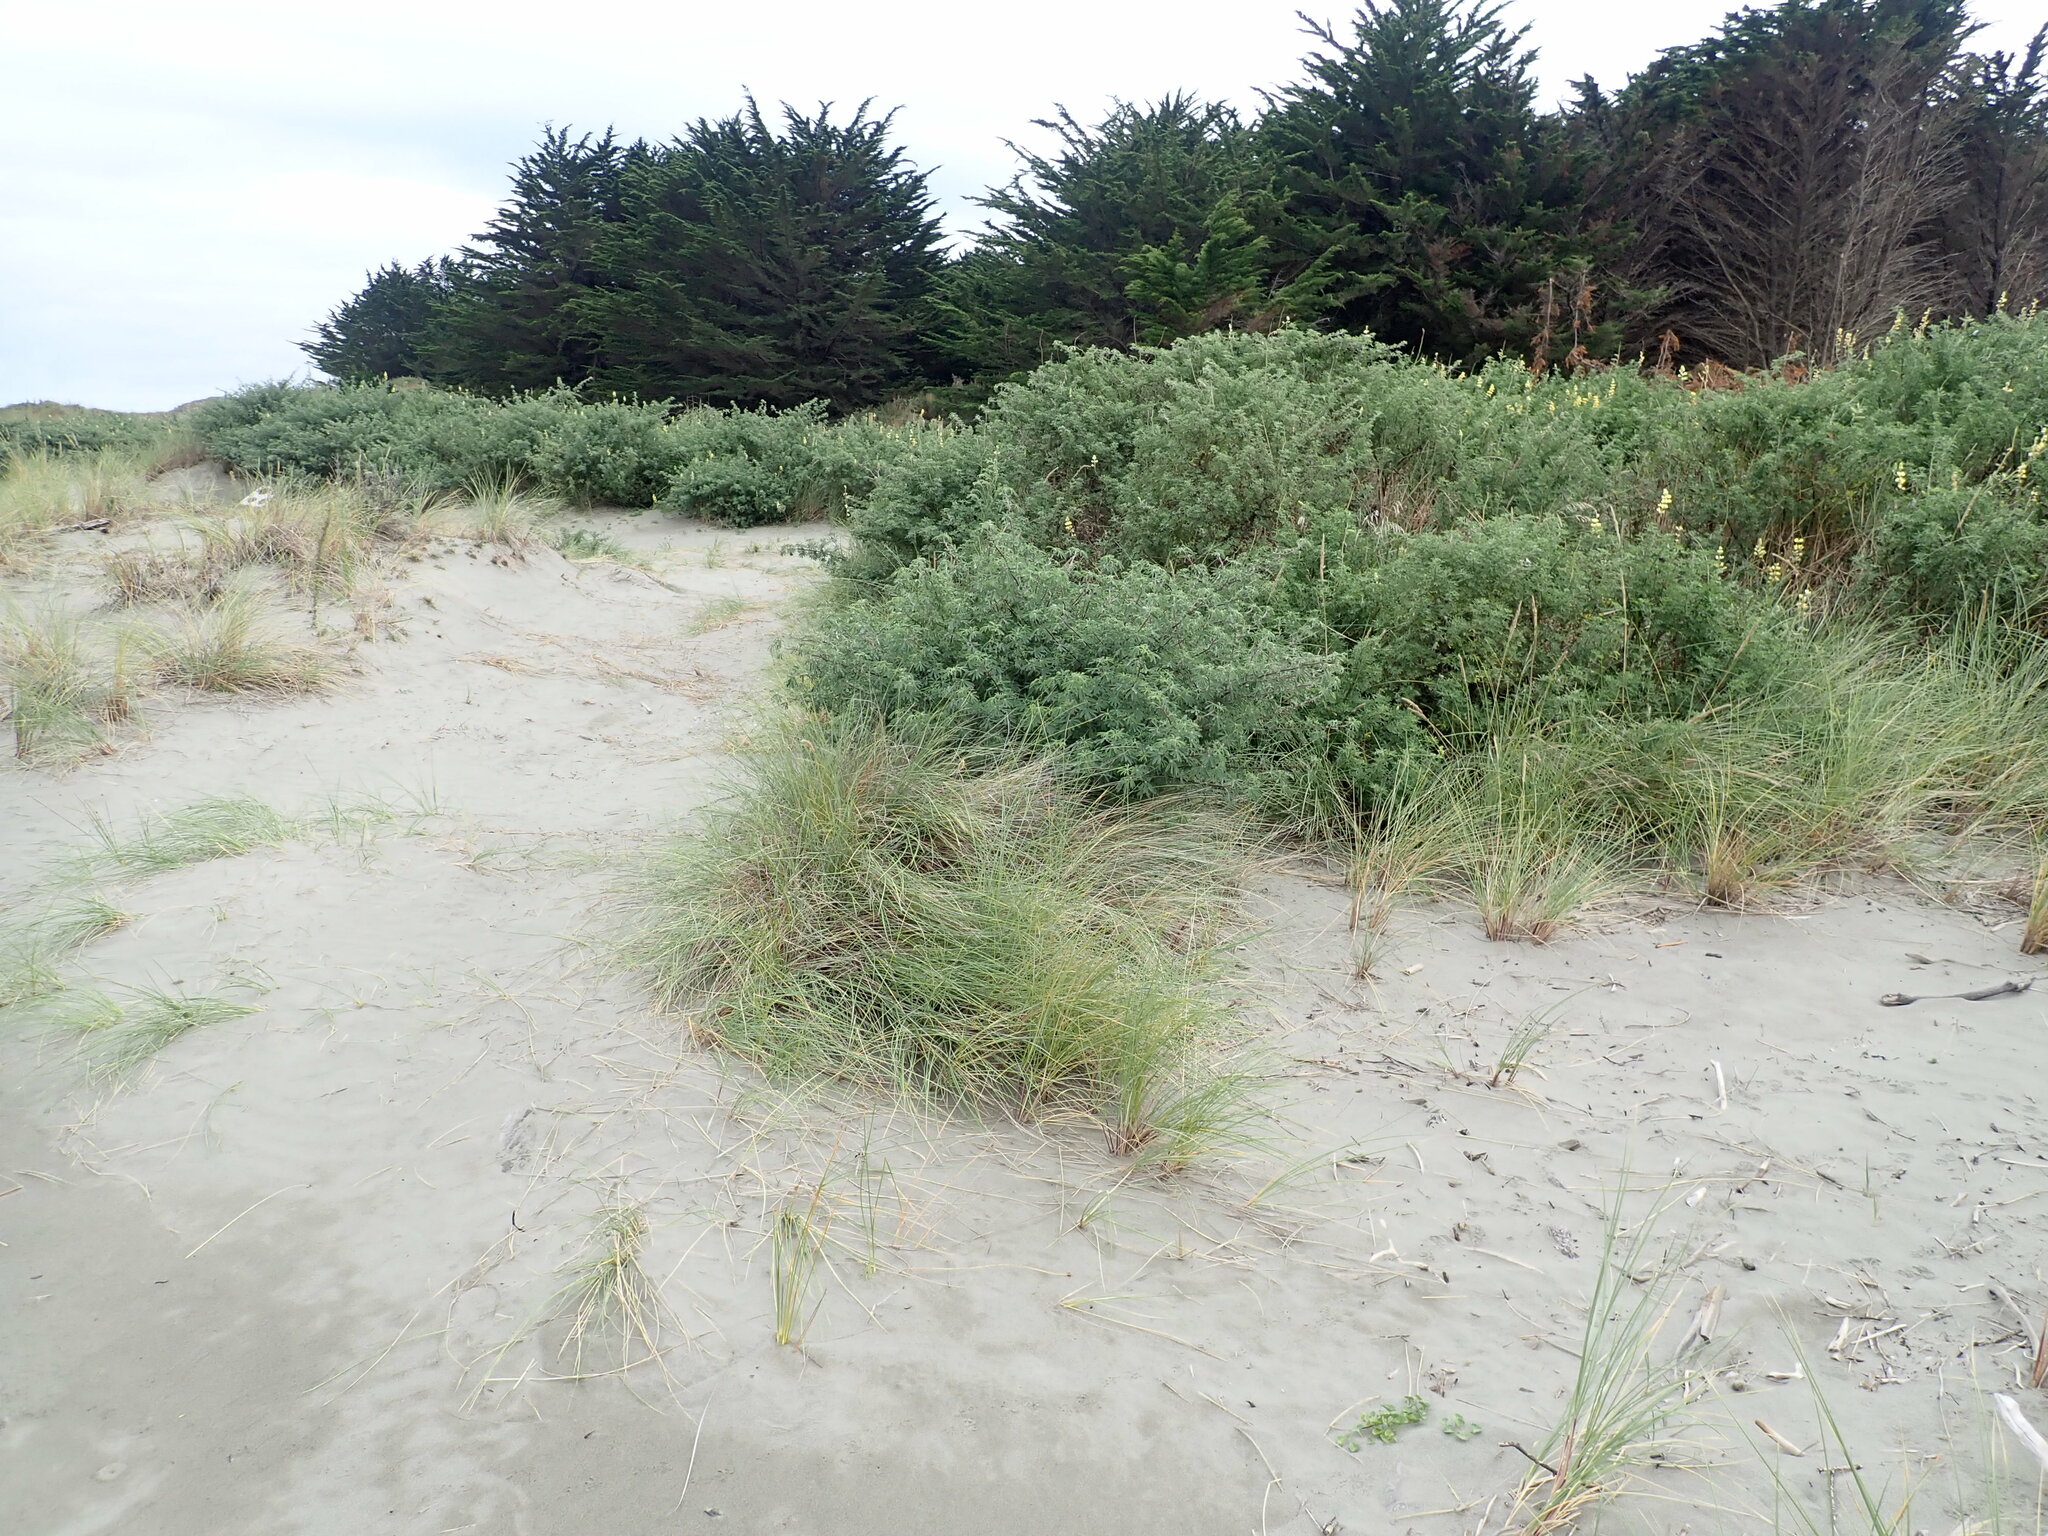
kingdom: Plantae
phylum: Tracheophyta
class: Magnoliopsida
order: Fabales
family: Fabaceae
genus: Lupinus
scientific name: Lupinus arboreus
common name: Yellow bush lupine
